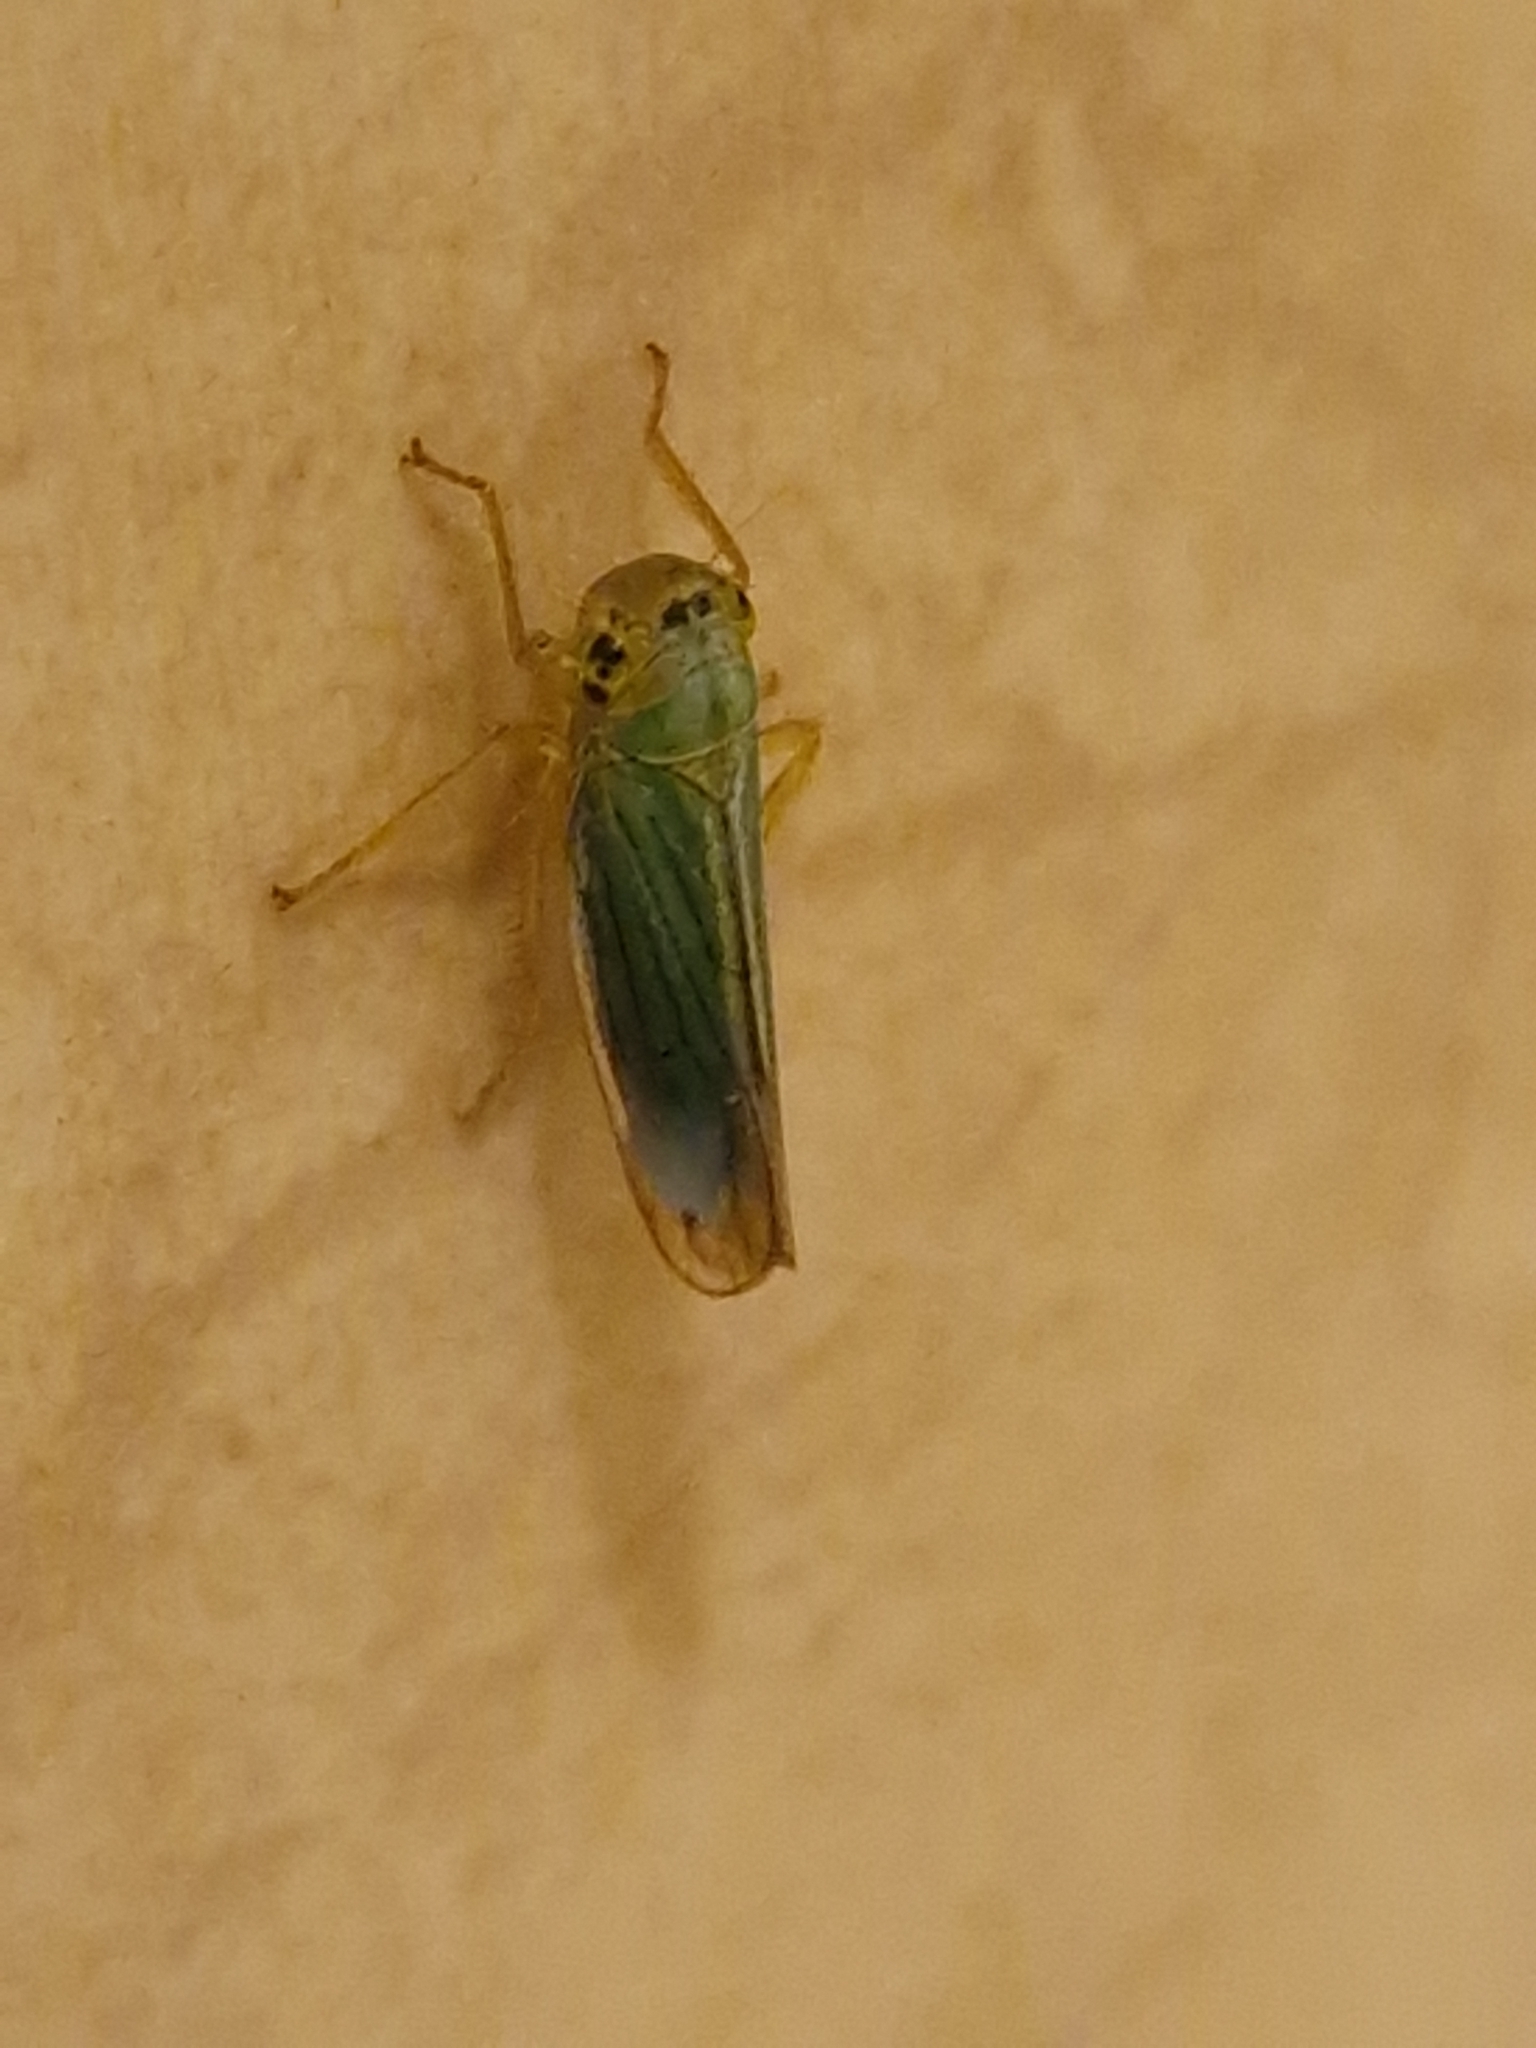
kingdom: Animalia
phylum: Arthropoda
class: Insecta
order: Hemiptera
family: Cicadellidae
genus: Cicadella
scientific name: Cicadella viridis
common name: Leafhopper
